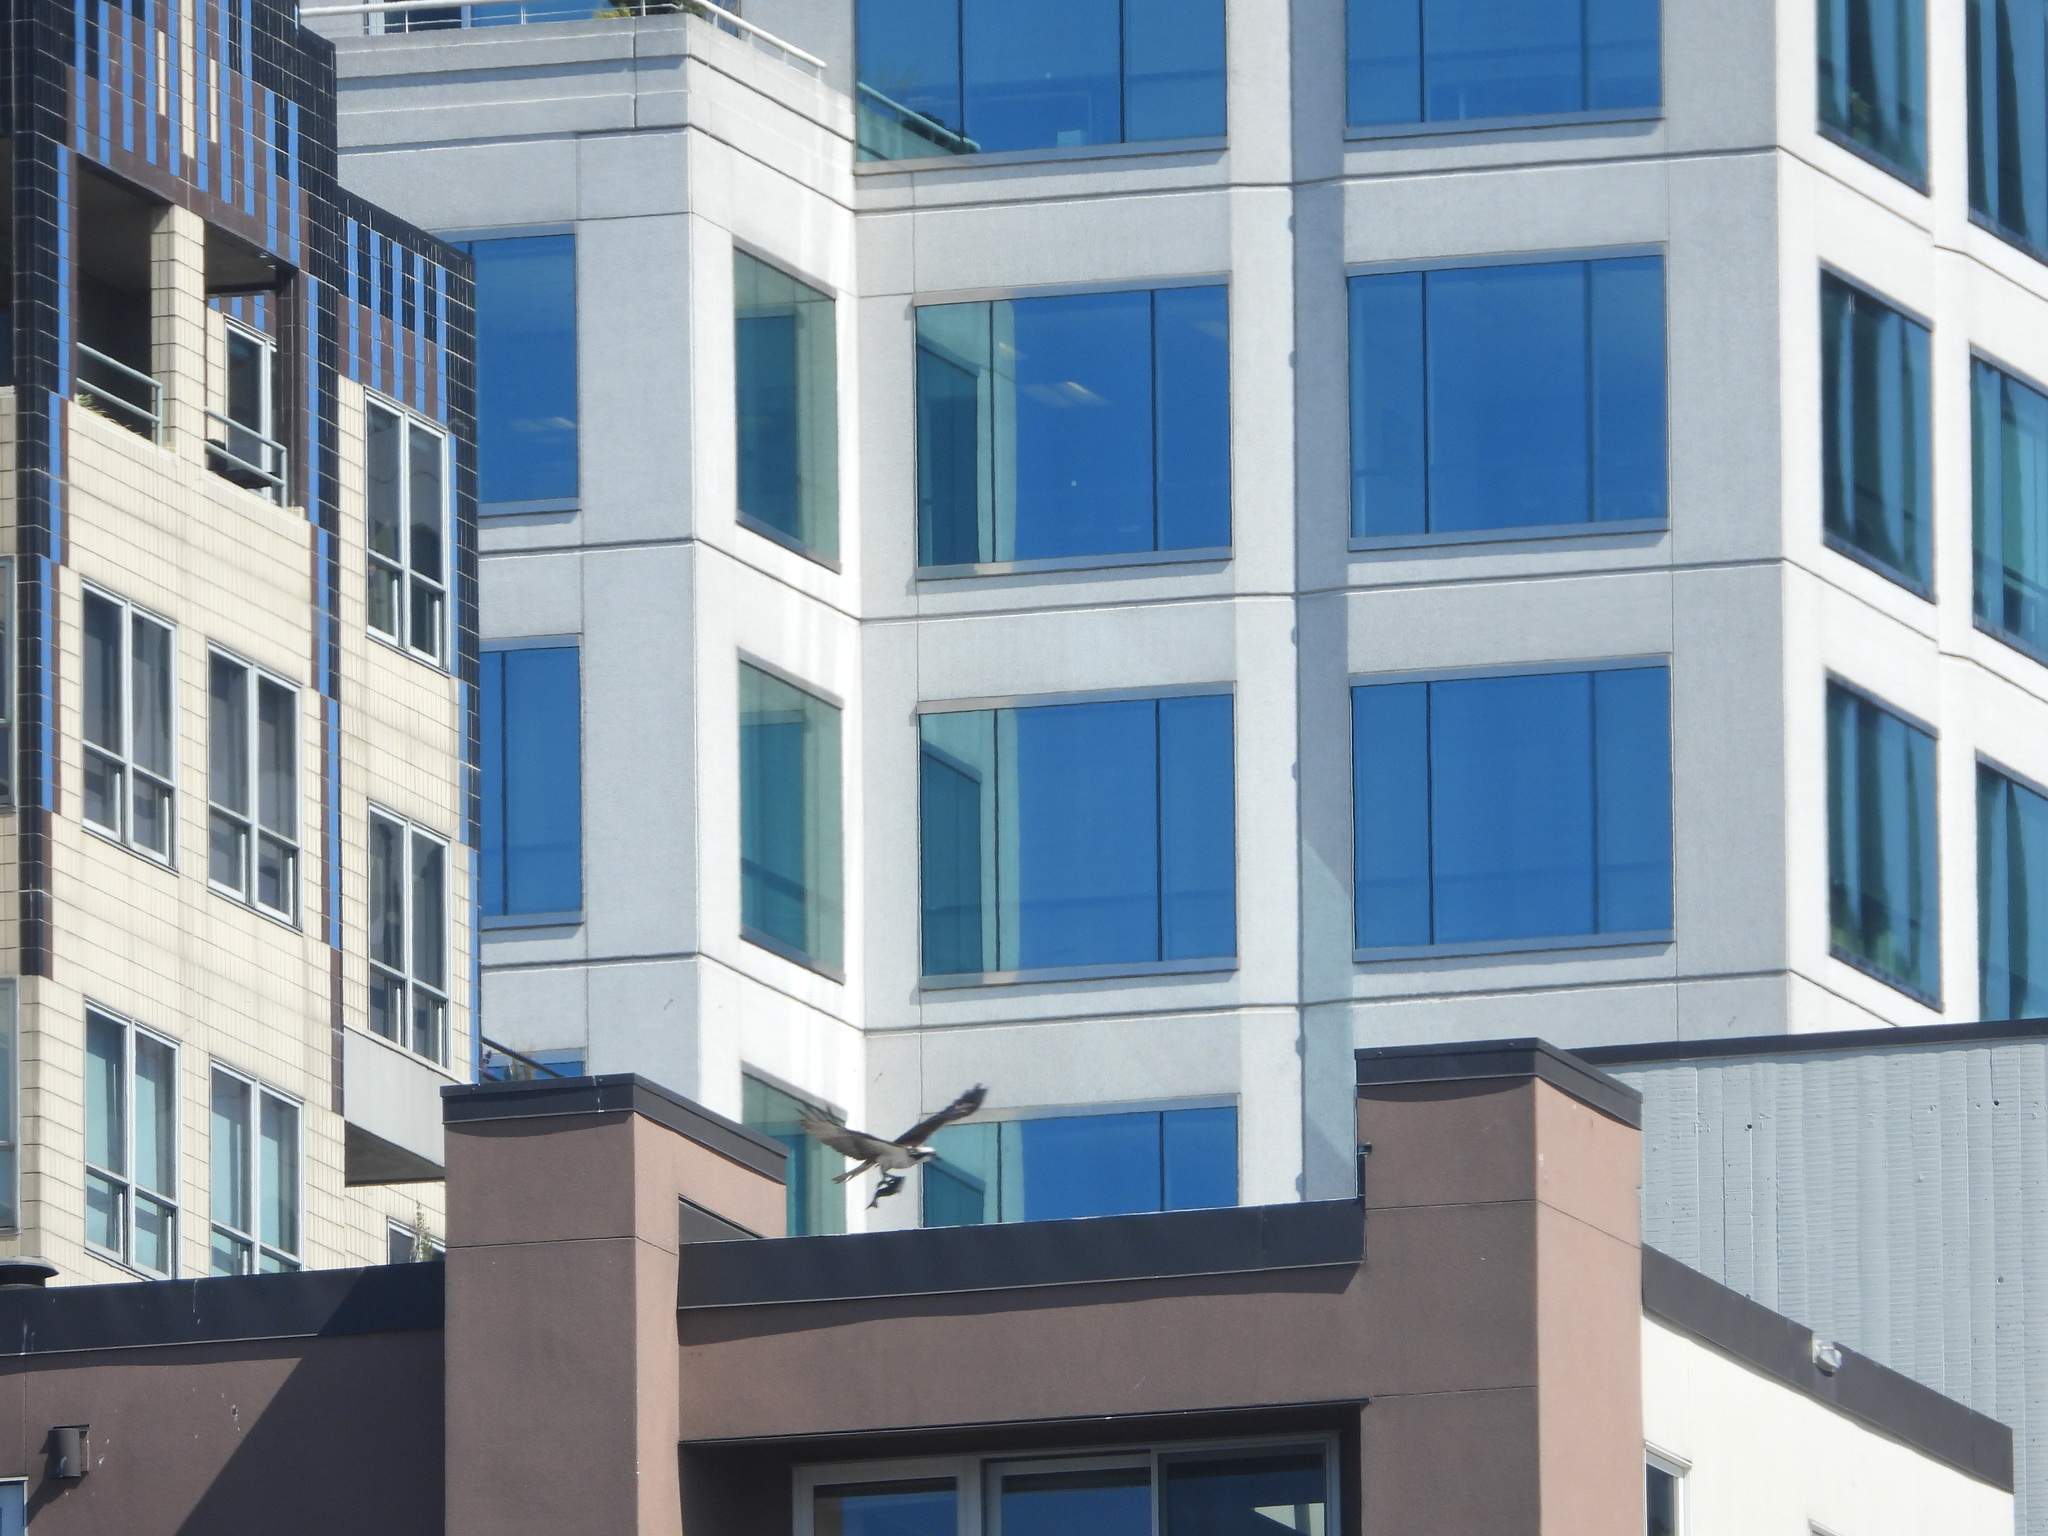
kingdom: Animalia
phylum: Chordata
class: Aves
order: Accipitriformes
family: Pandionidae
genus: Pandion
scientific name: Pandion haliaetus
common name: Osprey
